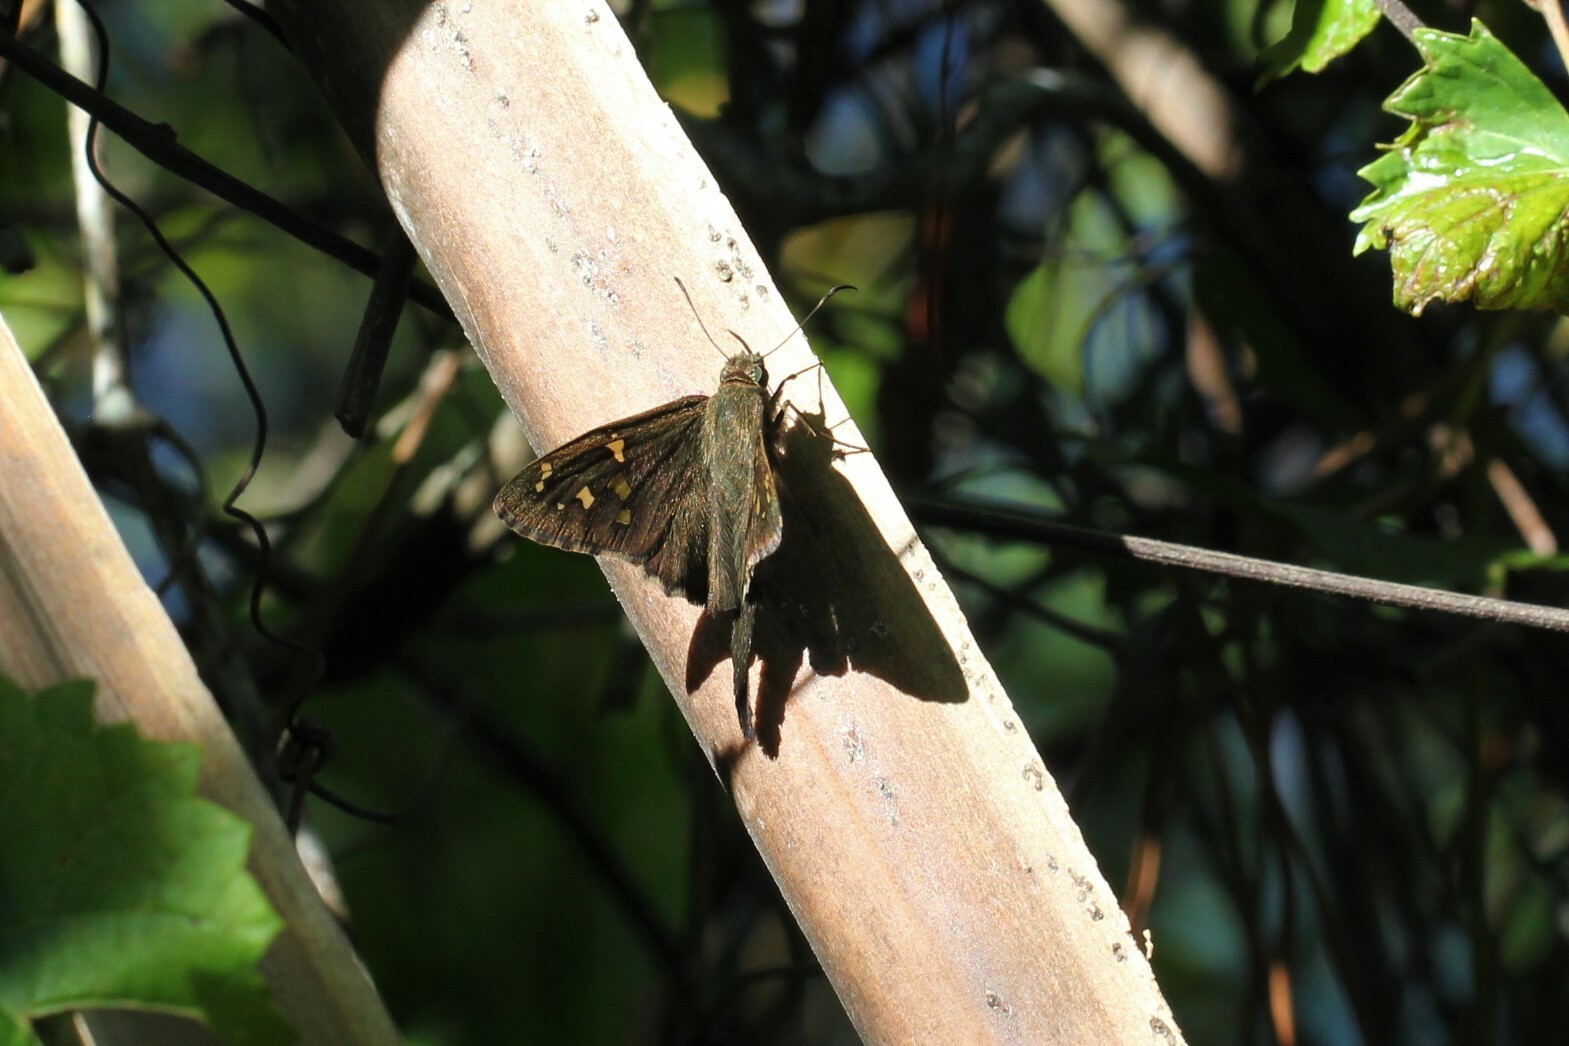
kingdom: Animalia
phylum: Arthropoda
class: Insecta
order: Lepidoptera
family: Hesperiidae
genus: Thorybes
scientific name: Thorybes
